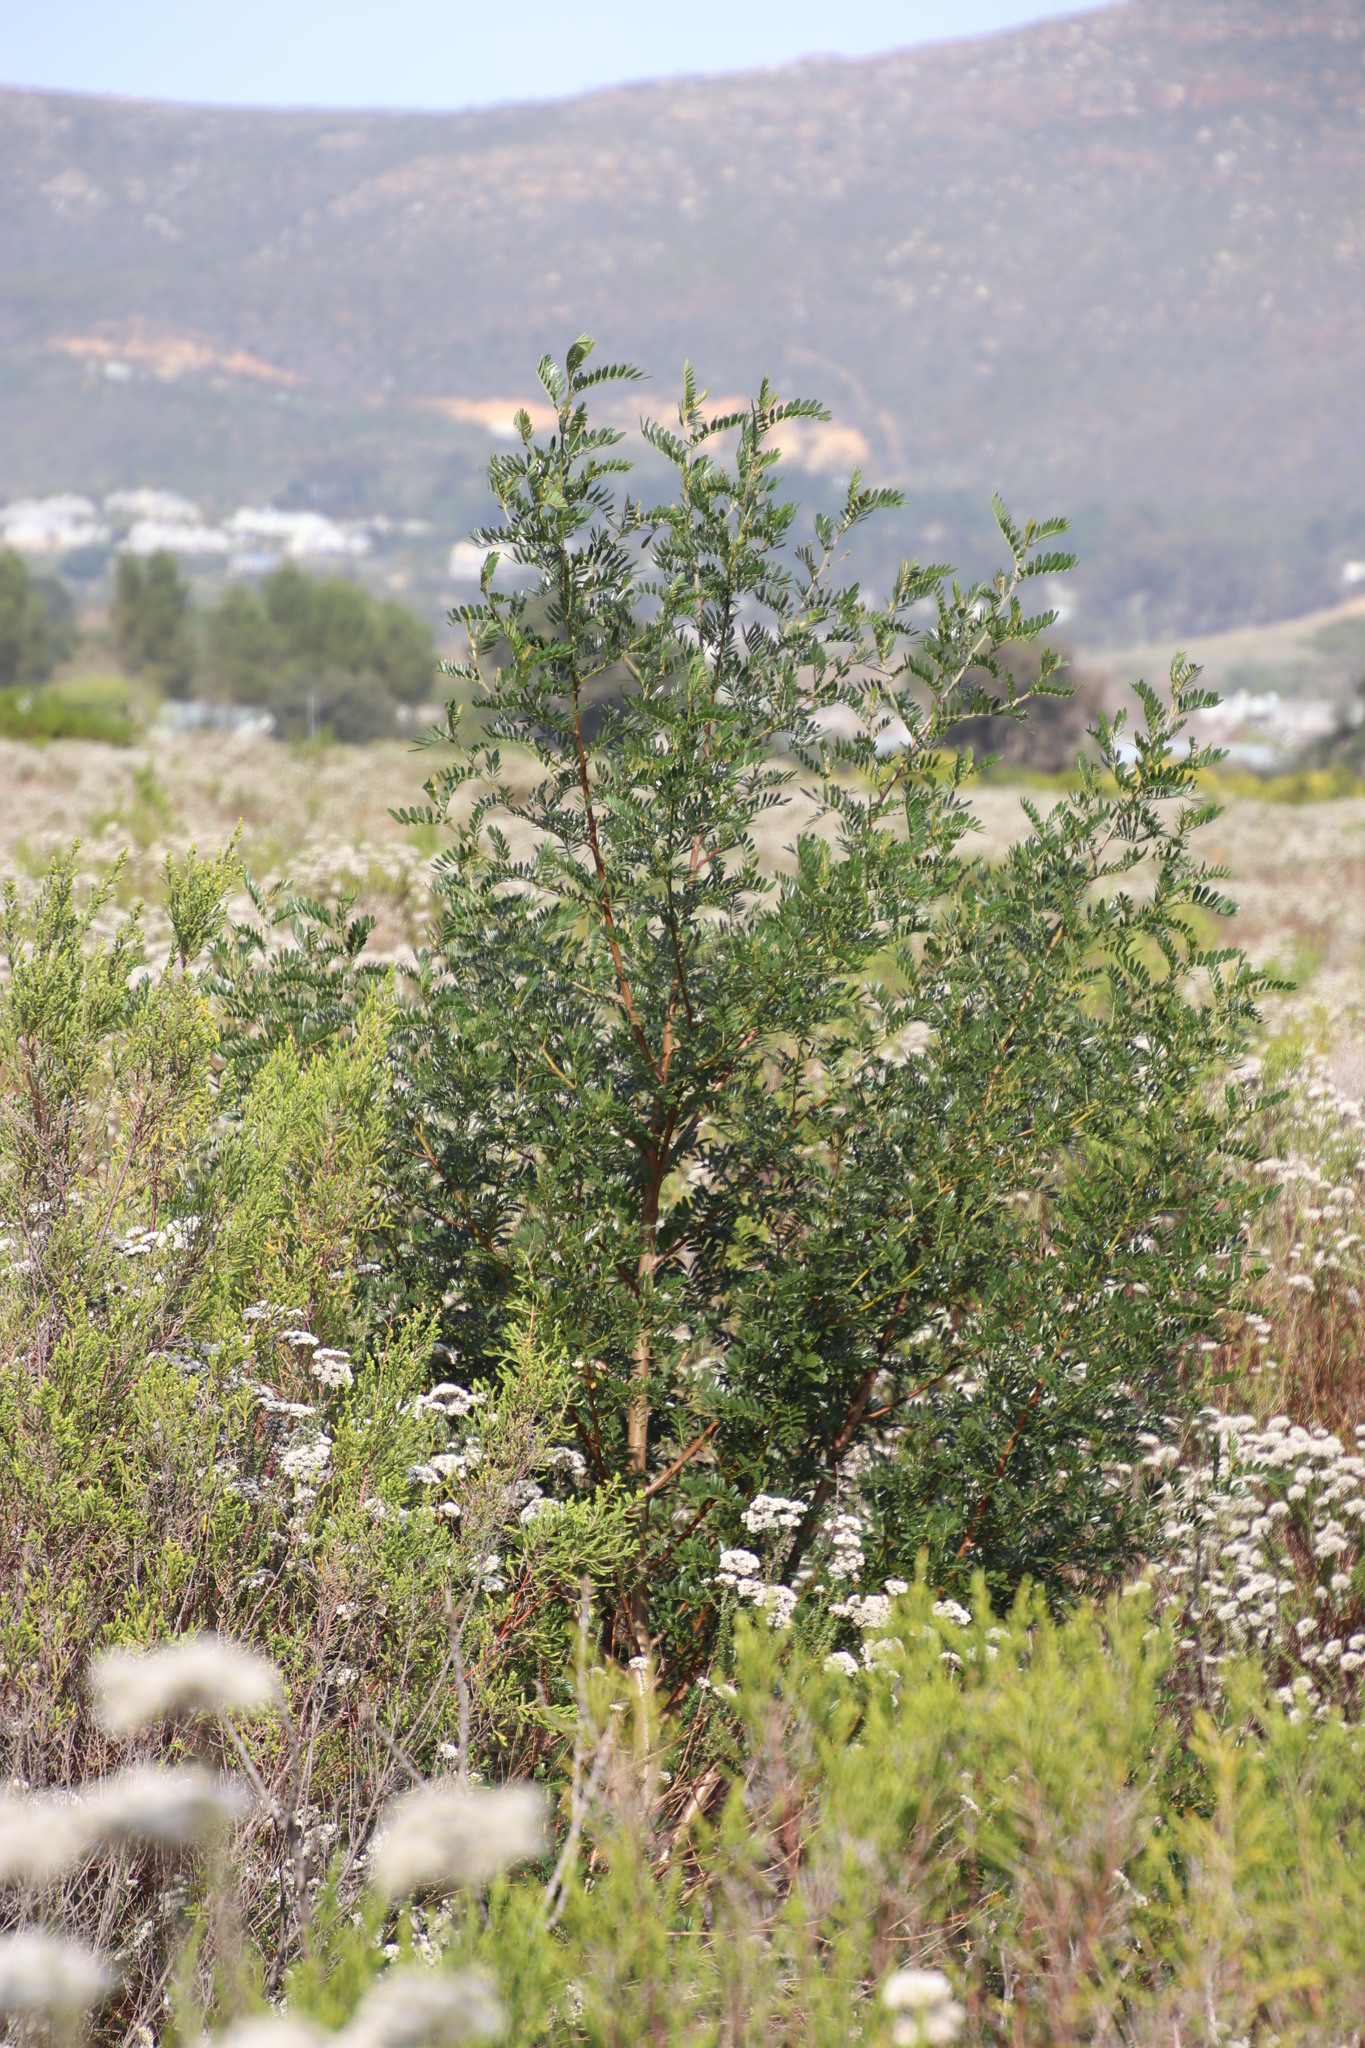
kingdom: Plantae
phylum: Tracheophyta
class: Magnoliopsida
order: Fabales
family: Fabaceae
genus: Virgilia
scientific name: Virgilia oroboides
